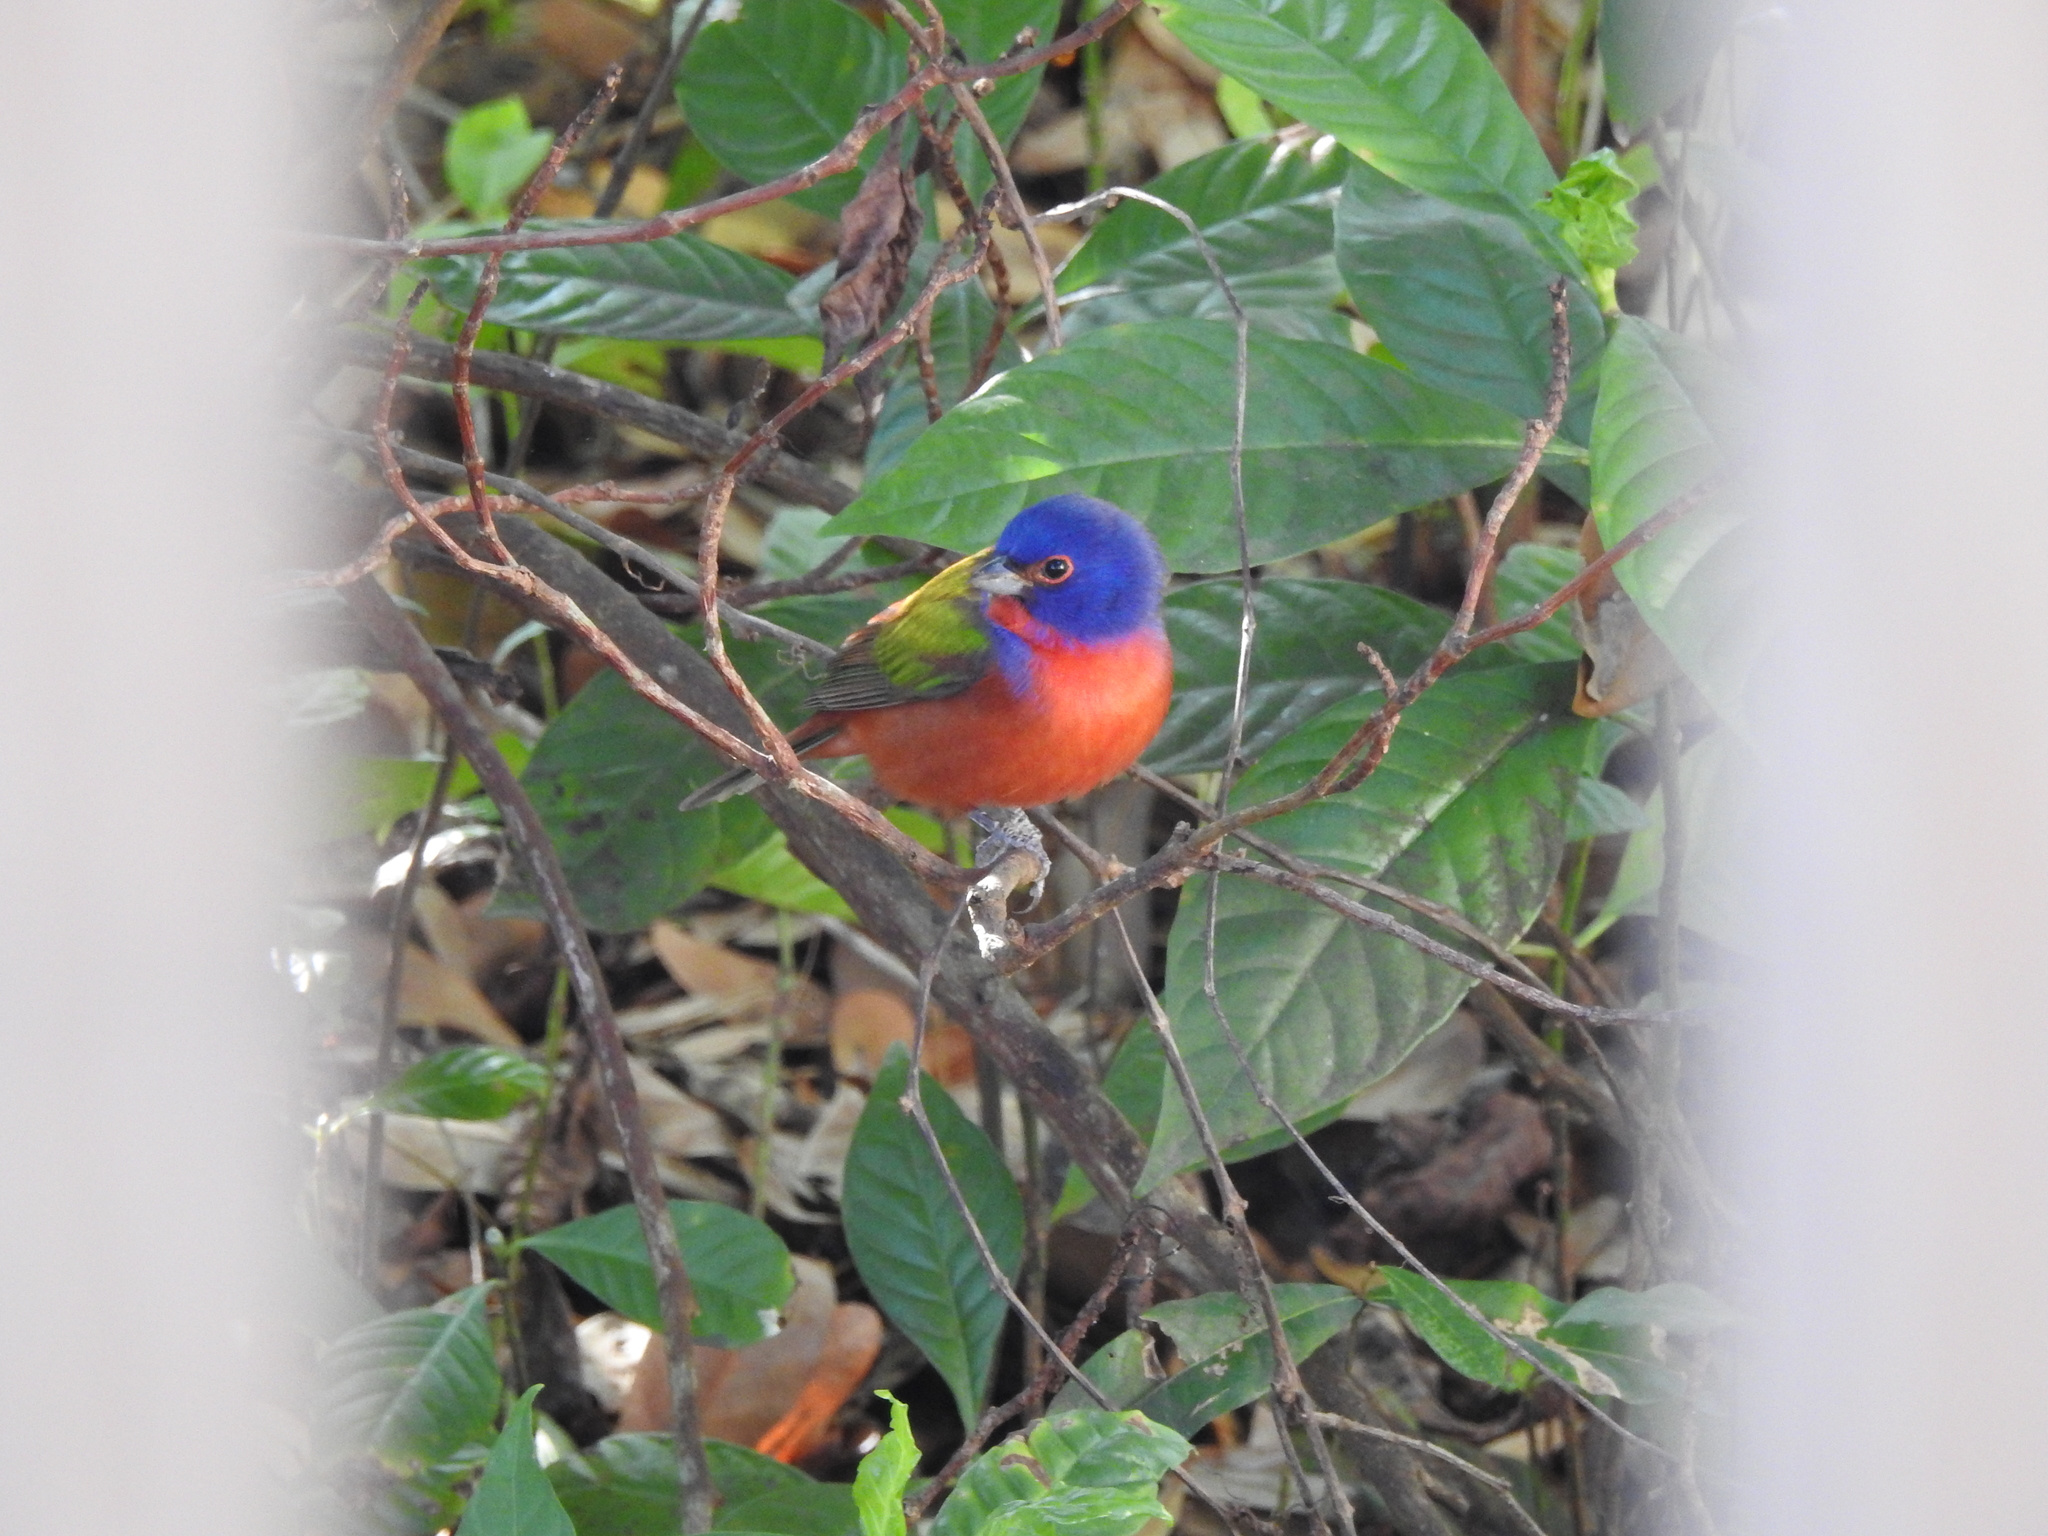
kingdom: Animalia
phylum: Chordata
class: Aves
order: Passeriformes
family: Cardinalidae
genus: Passerina
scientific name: Passerina ciris
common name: Painted bunting
